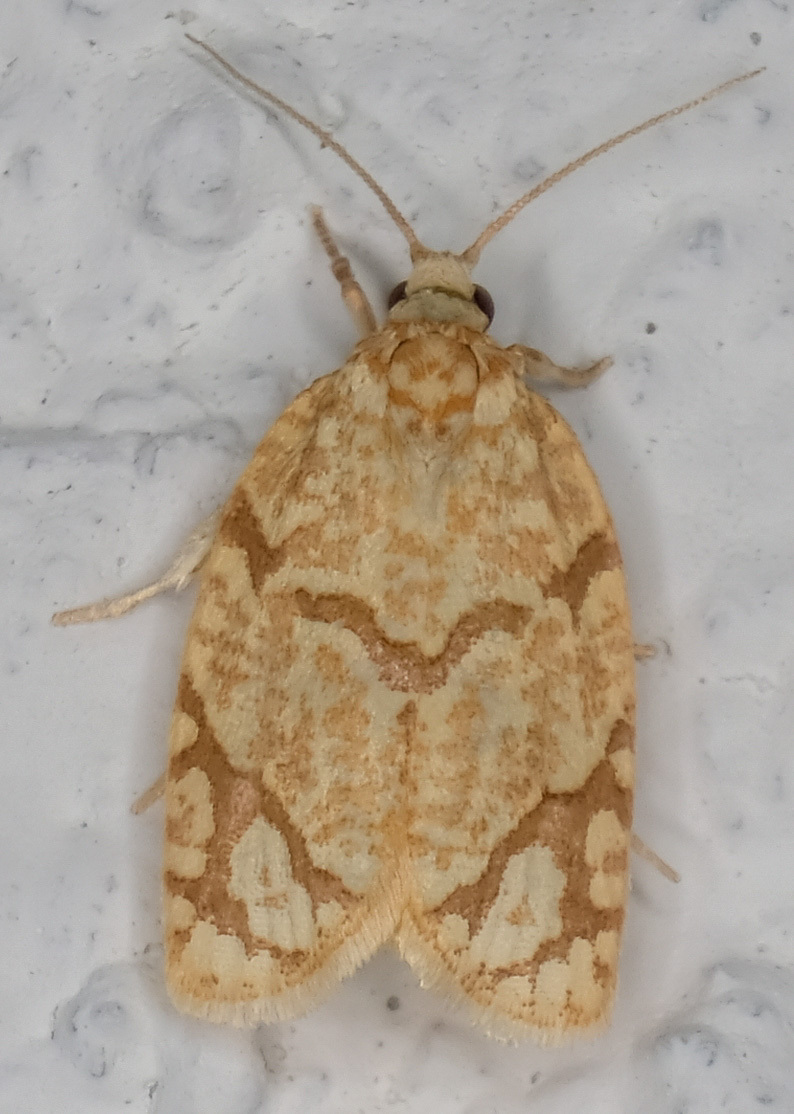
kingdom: Animalia
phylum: Arthropoda
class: Insecta
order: Lepidoptera
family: Tortricidae
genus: Argyrotaenia
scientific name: Argyrotaenia quercifoliana
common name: Yellow-winged oak leafroller moth
